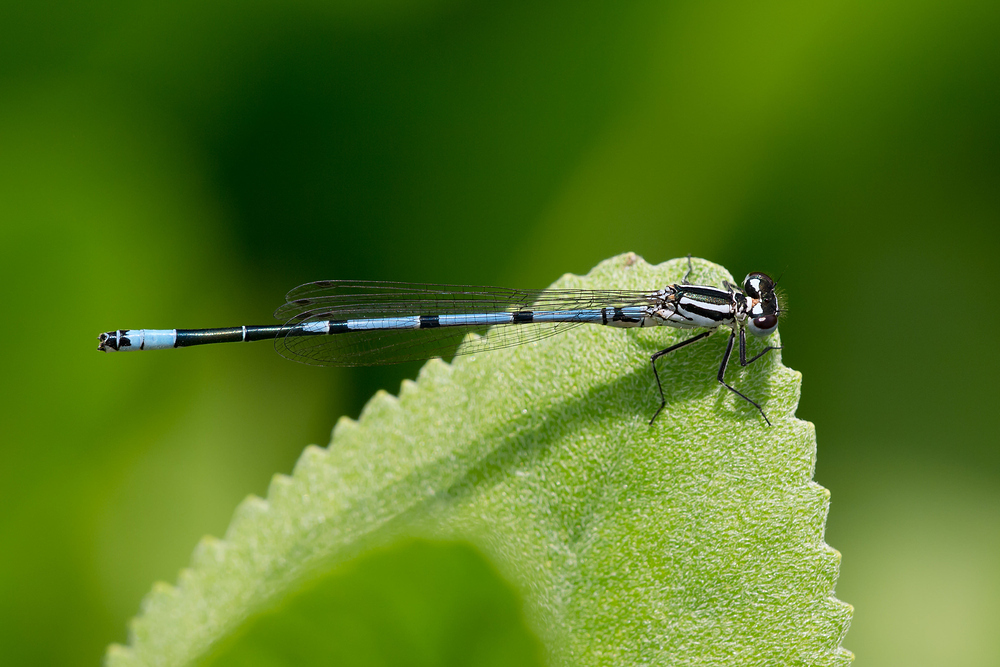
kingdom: Animalia
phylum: Arthropoda
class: Insecta
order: Odonata
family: Coenagrionidae
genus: Coenagrion
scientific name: Coenagrion puella
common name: Azure damselfly
